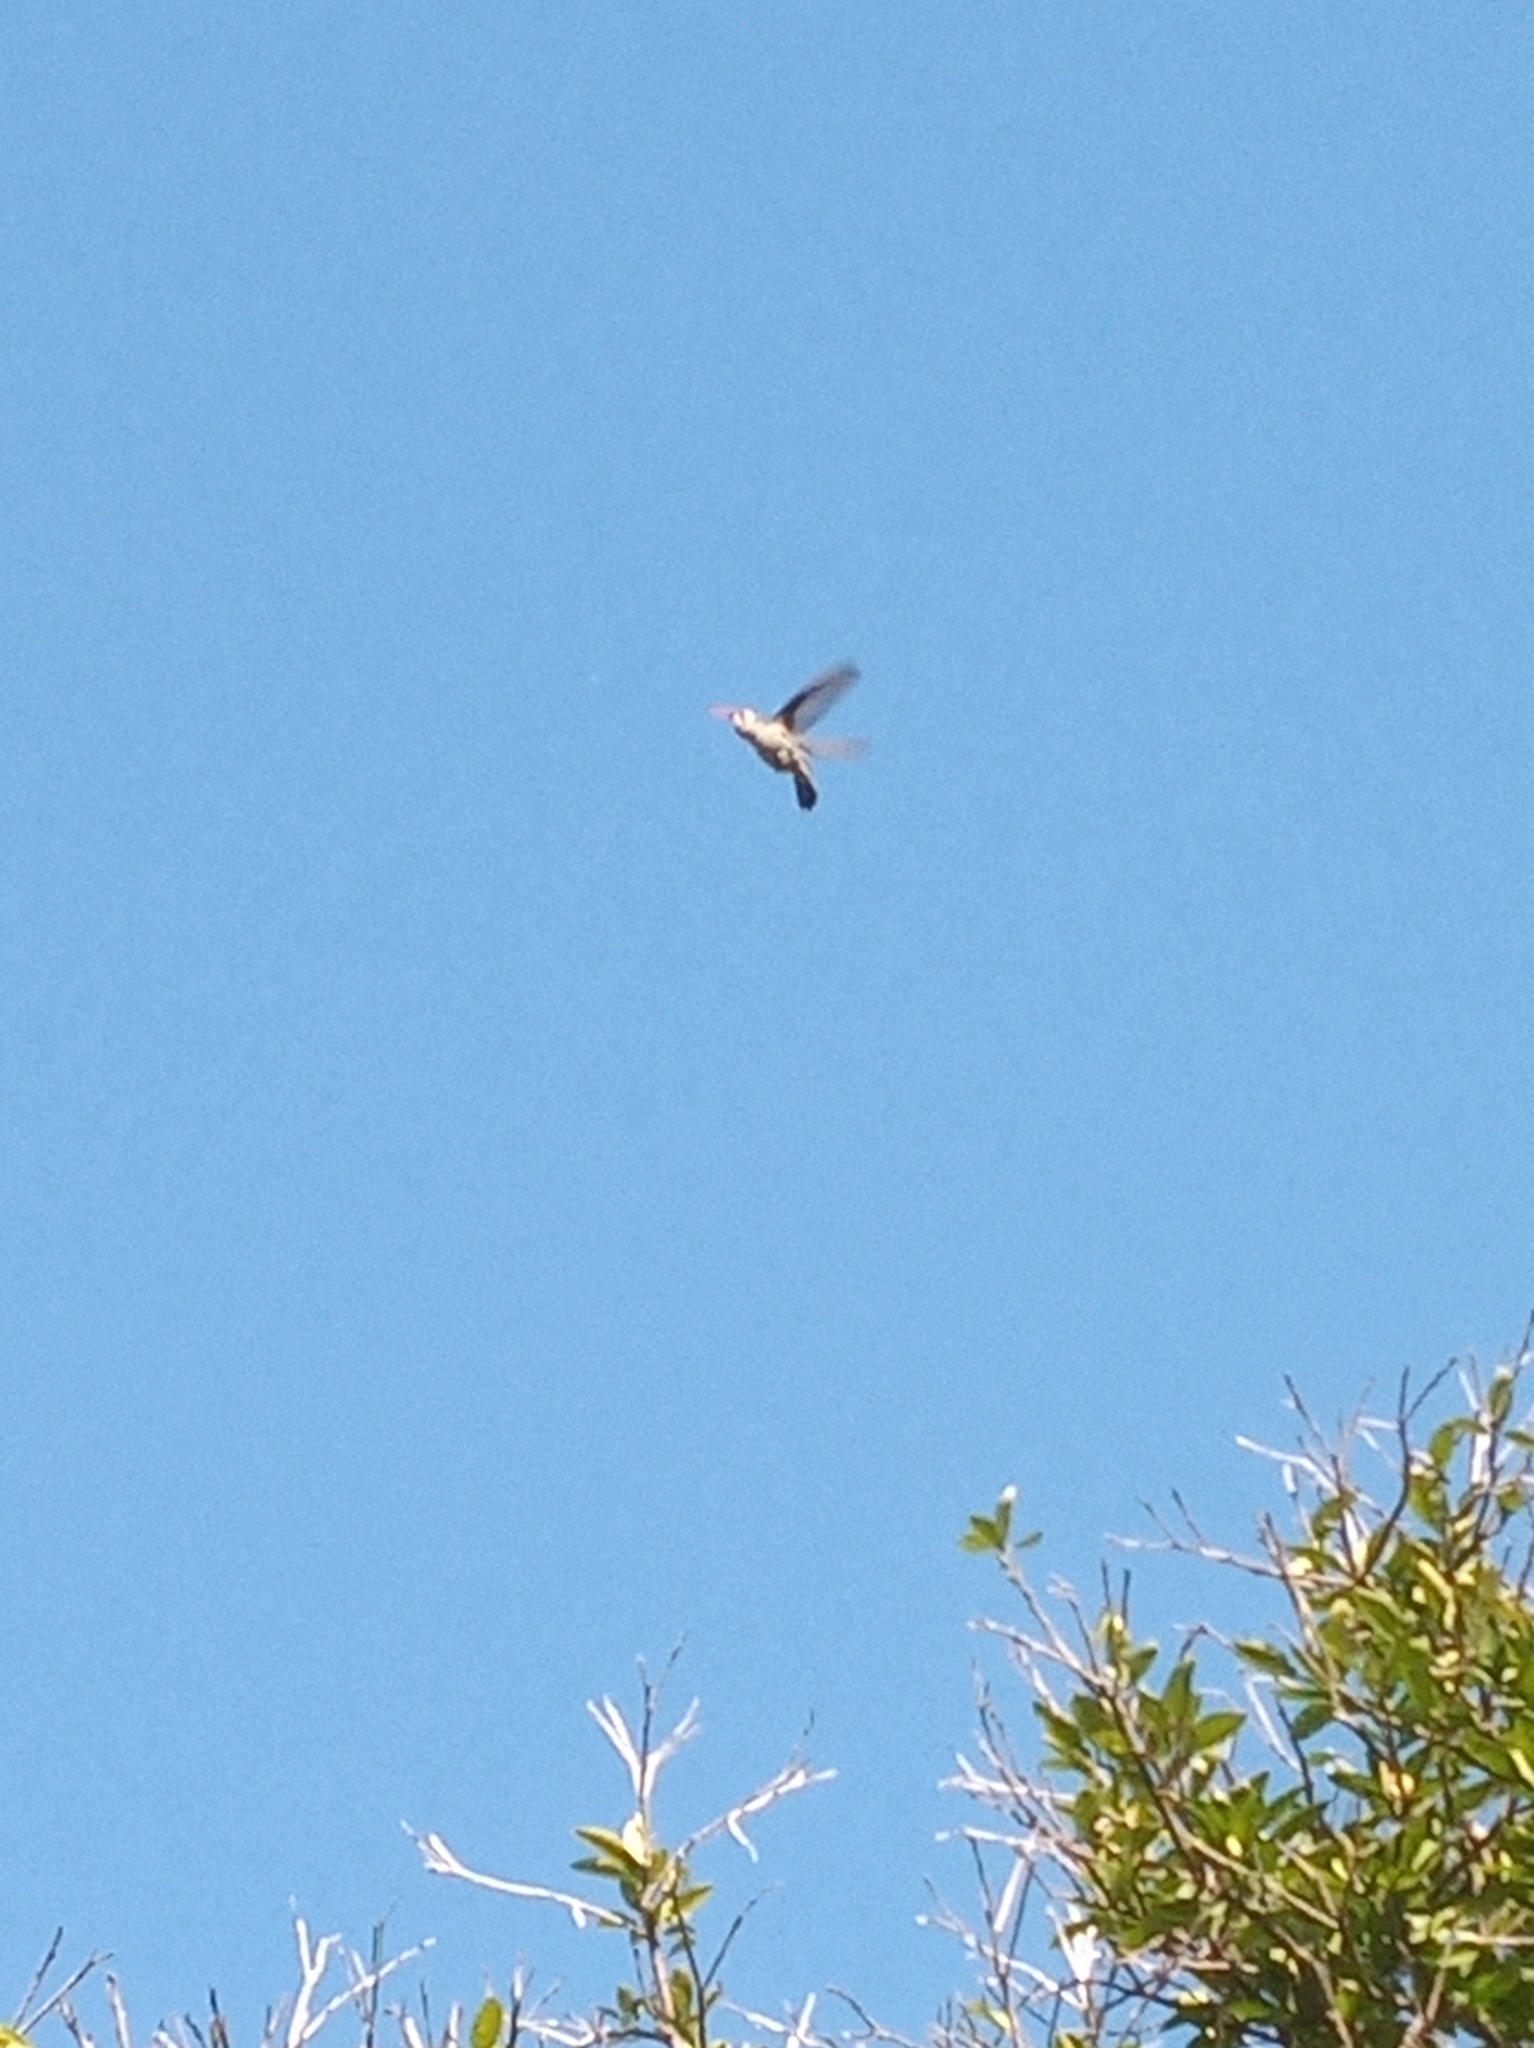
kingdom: Animalia
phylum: Chordata
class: Aves
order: Apodiformes
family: Trochilidae
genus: Cynanthus
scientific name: Cynanthus latirostris
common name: Broad-billed hummingbird
